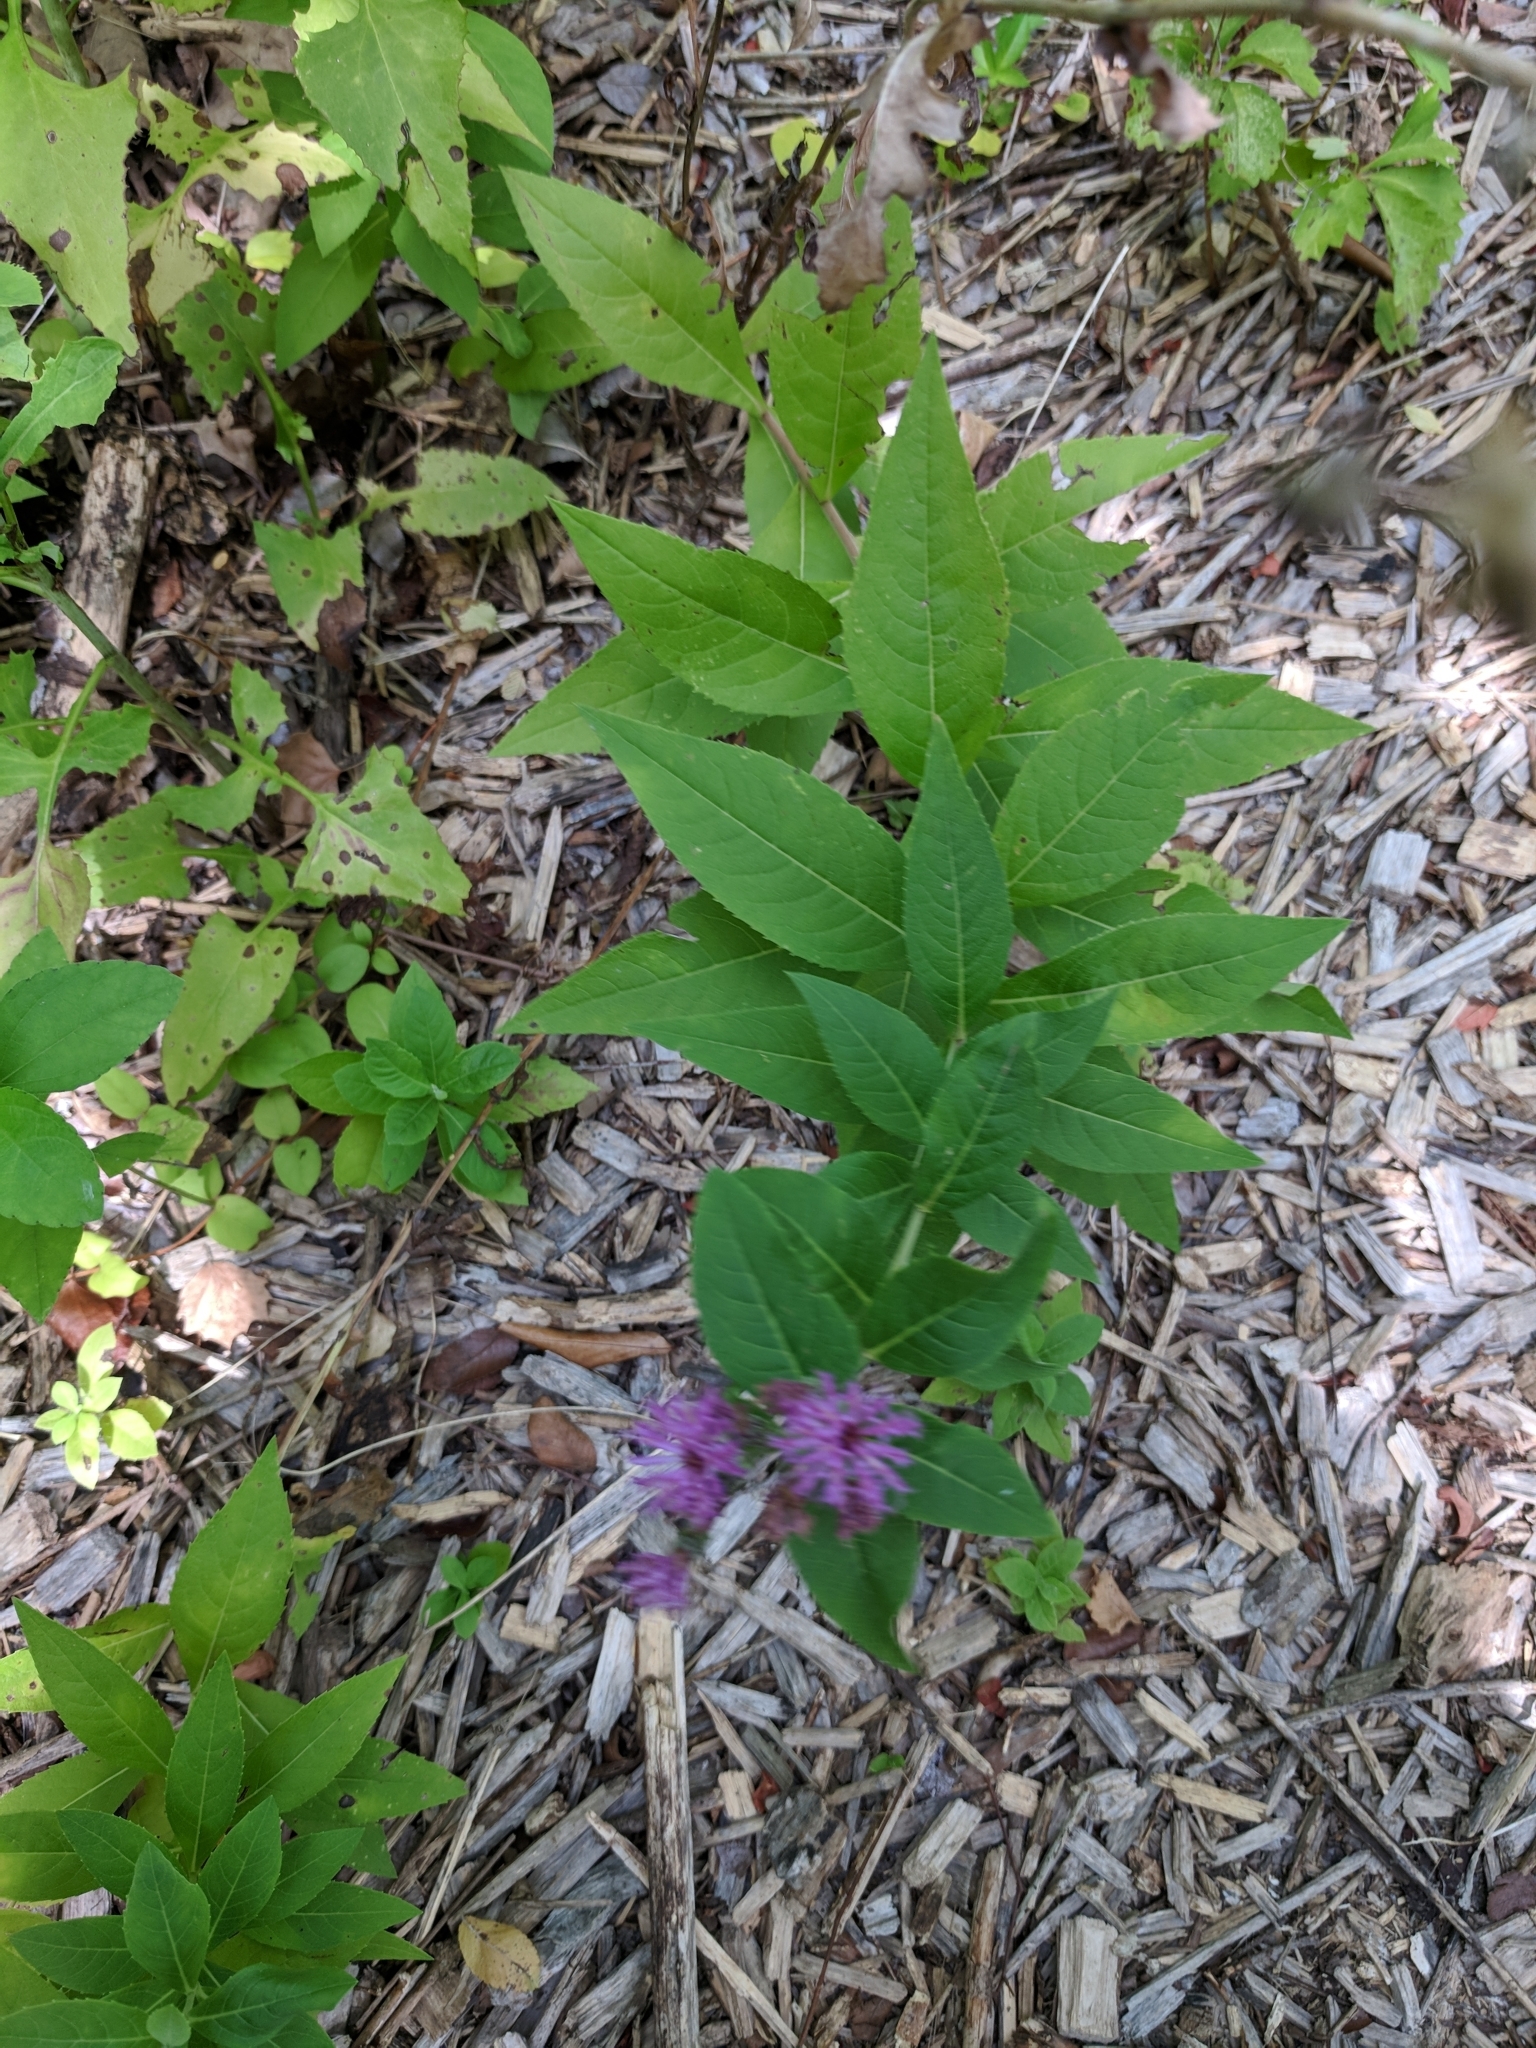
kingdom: Plantae
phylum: Tracheophyta
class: Magnoliopsida
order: Asterales
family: Asteraceae
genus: Vernonia
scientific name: Vernonia baldwinii
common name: Western ironweed
